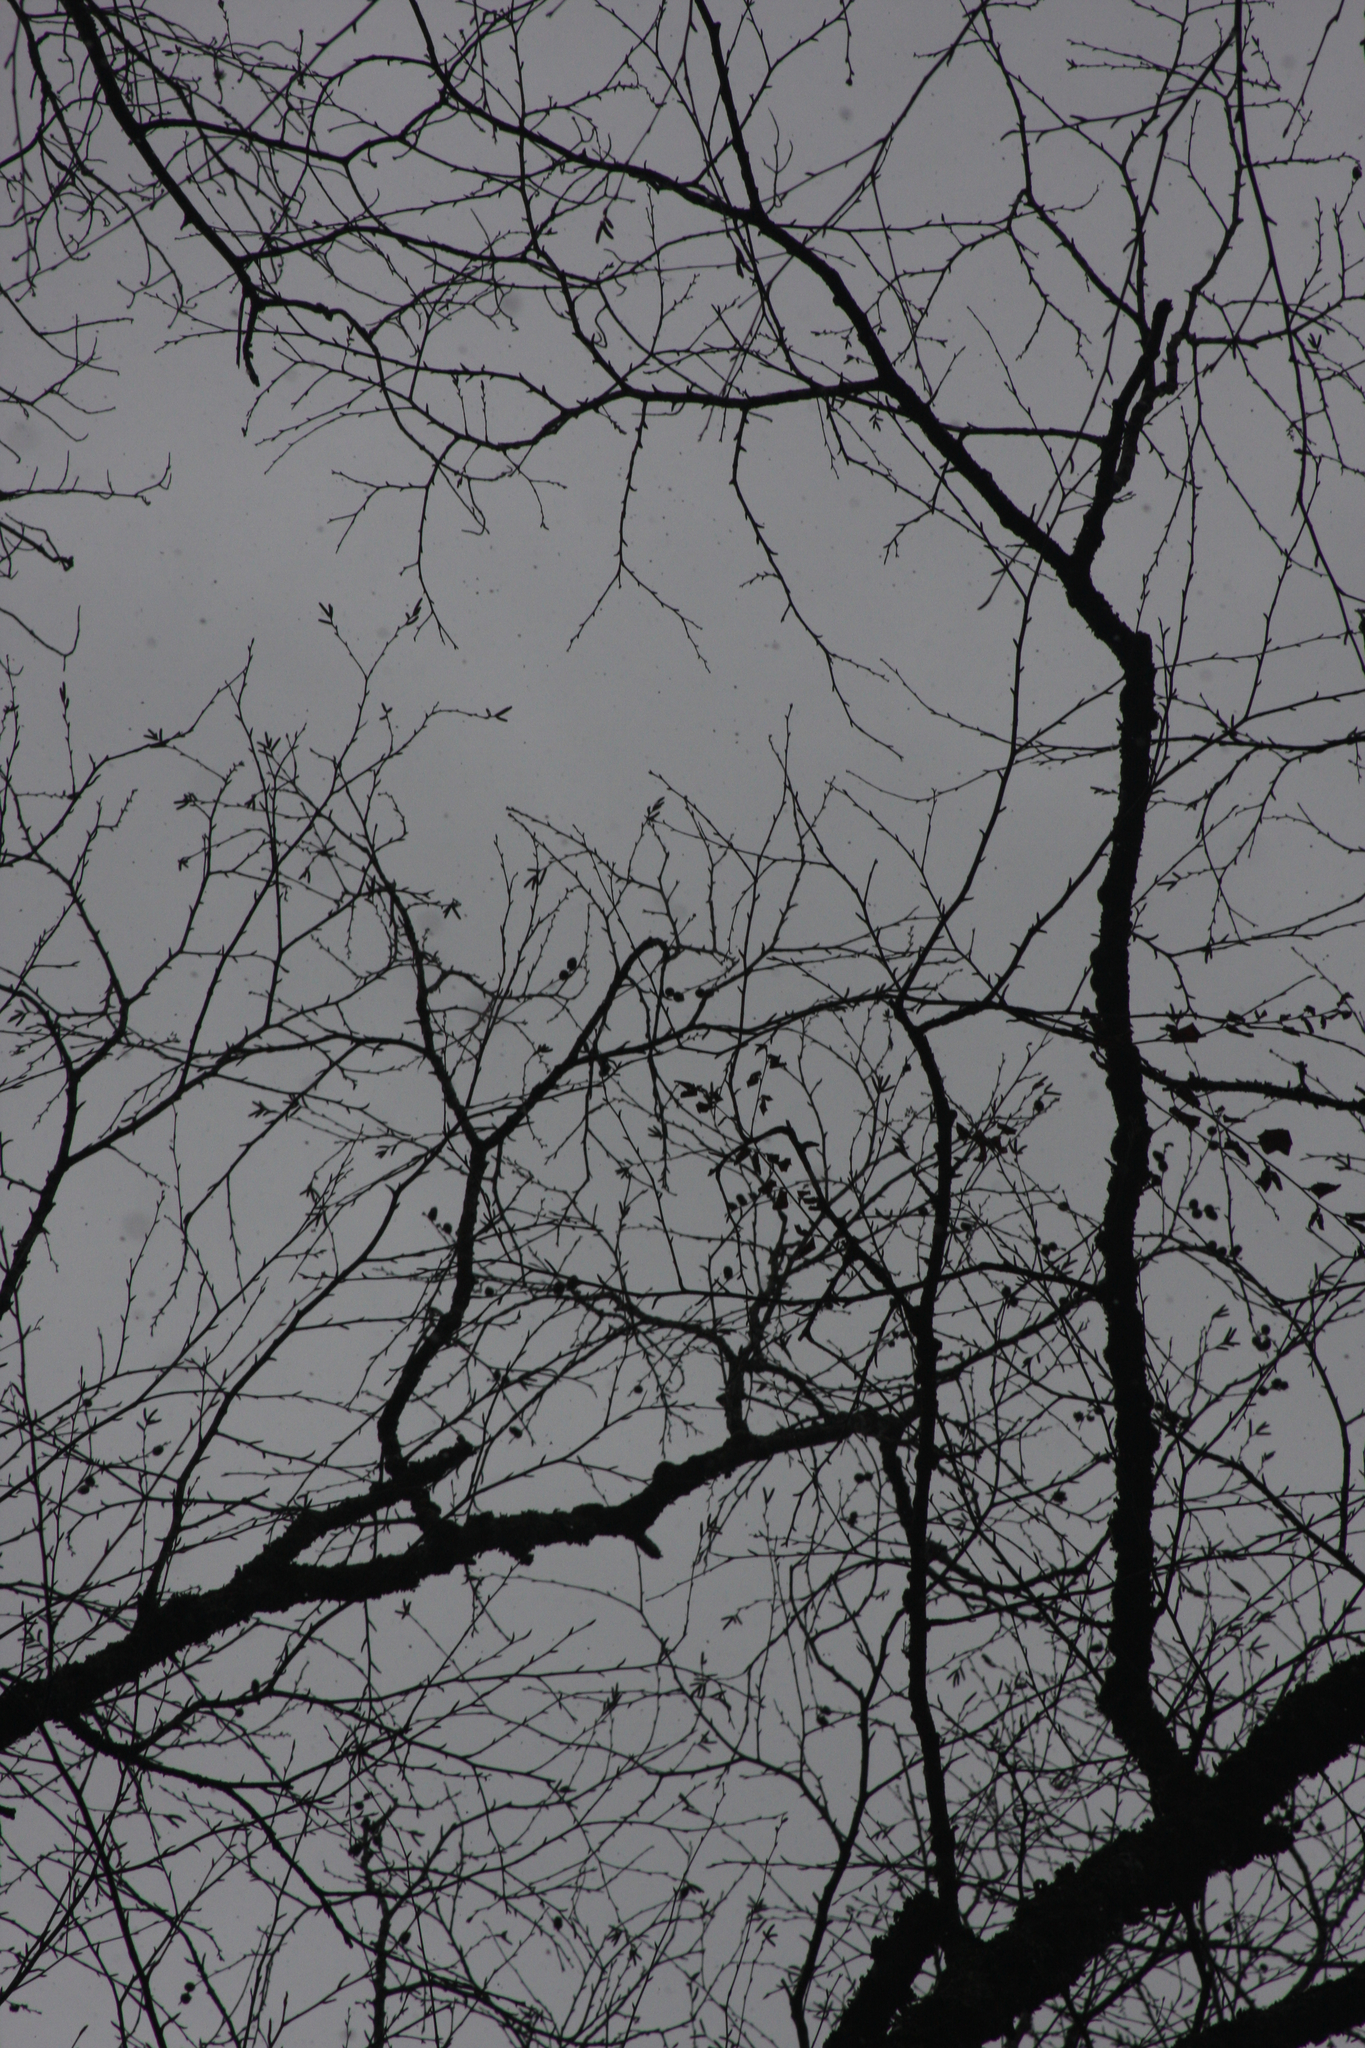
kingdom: Plantae
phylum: Tracheophyta
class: Magnoliopsida
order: Fagales
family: Betulaceae
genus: Betula
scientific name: Betula alleghaniensis
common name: Yellow birch
